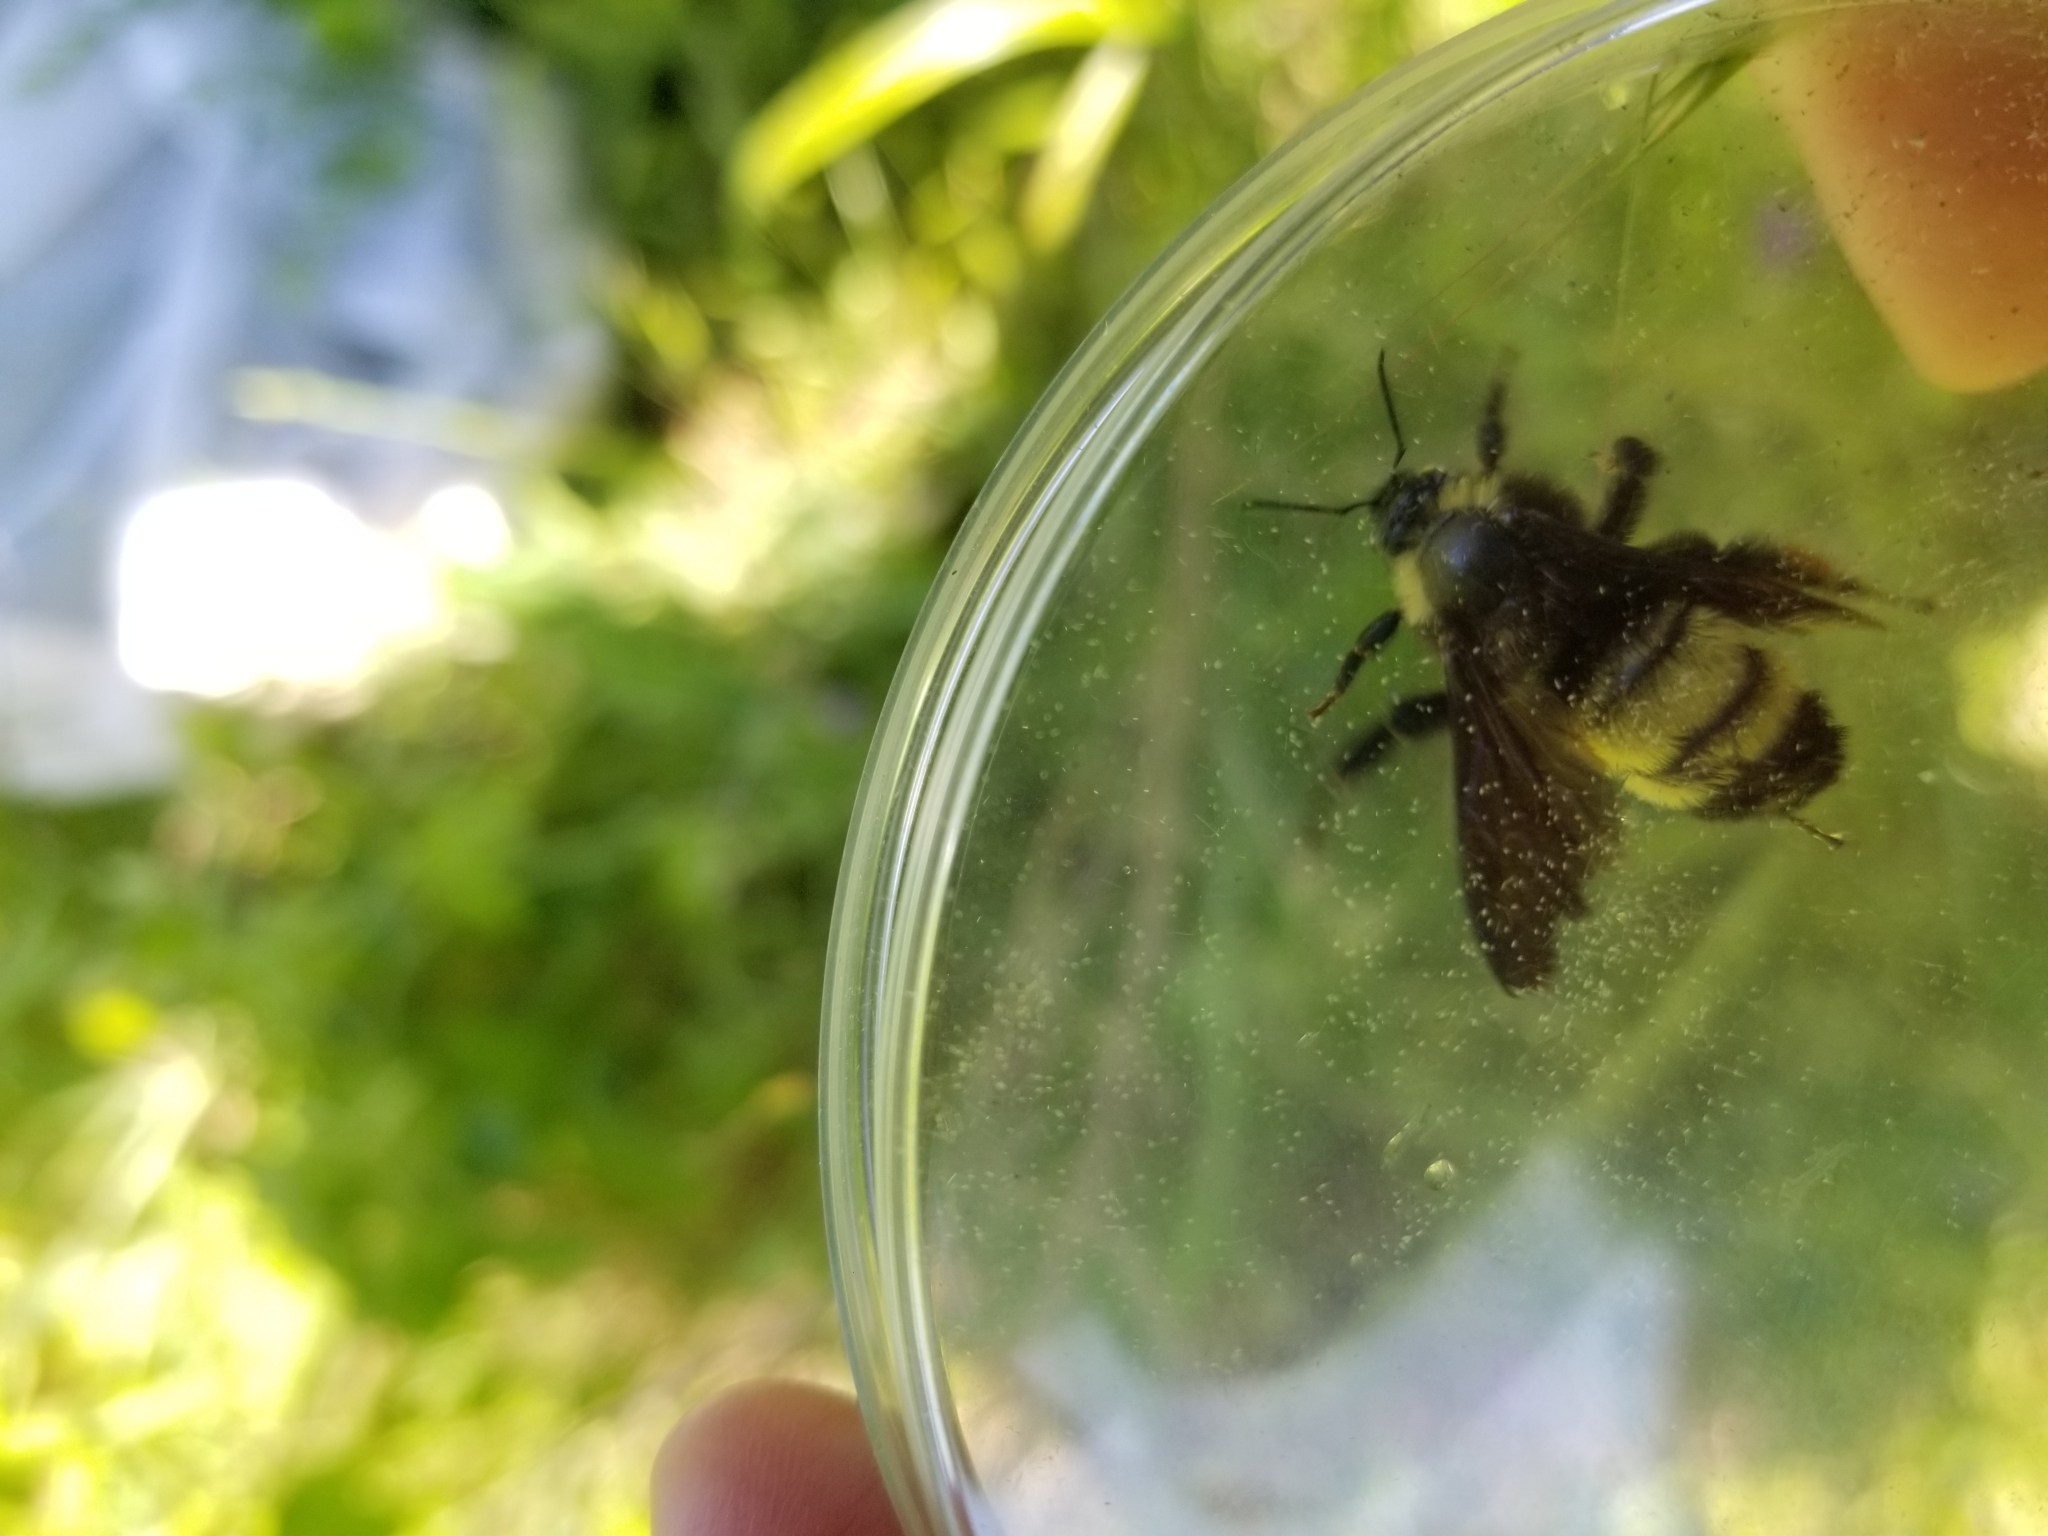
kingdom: Animalia
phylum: Arthropoda
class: Insecta
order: Hymenoptera
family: Apidae
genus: Bombus
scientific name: Bombus pensylvanicus
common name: Bumble bee
